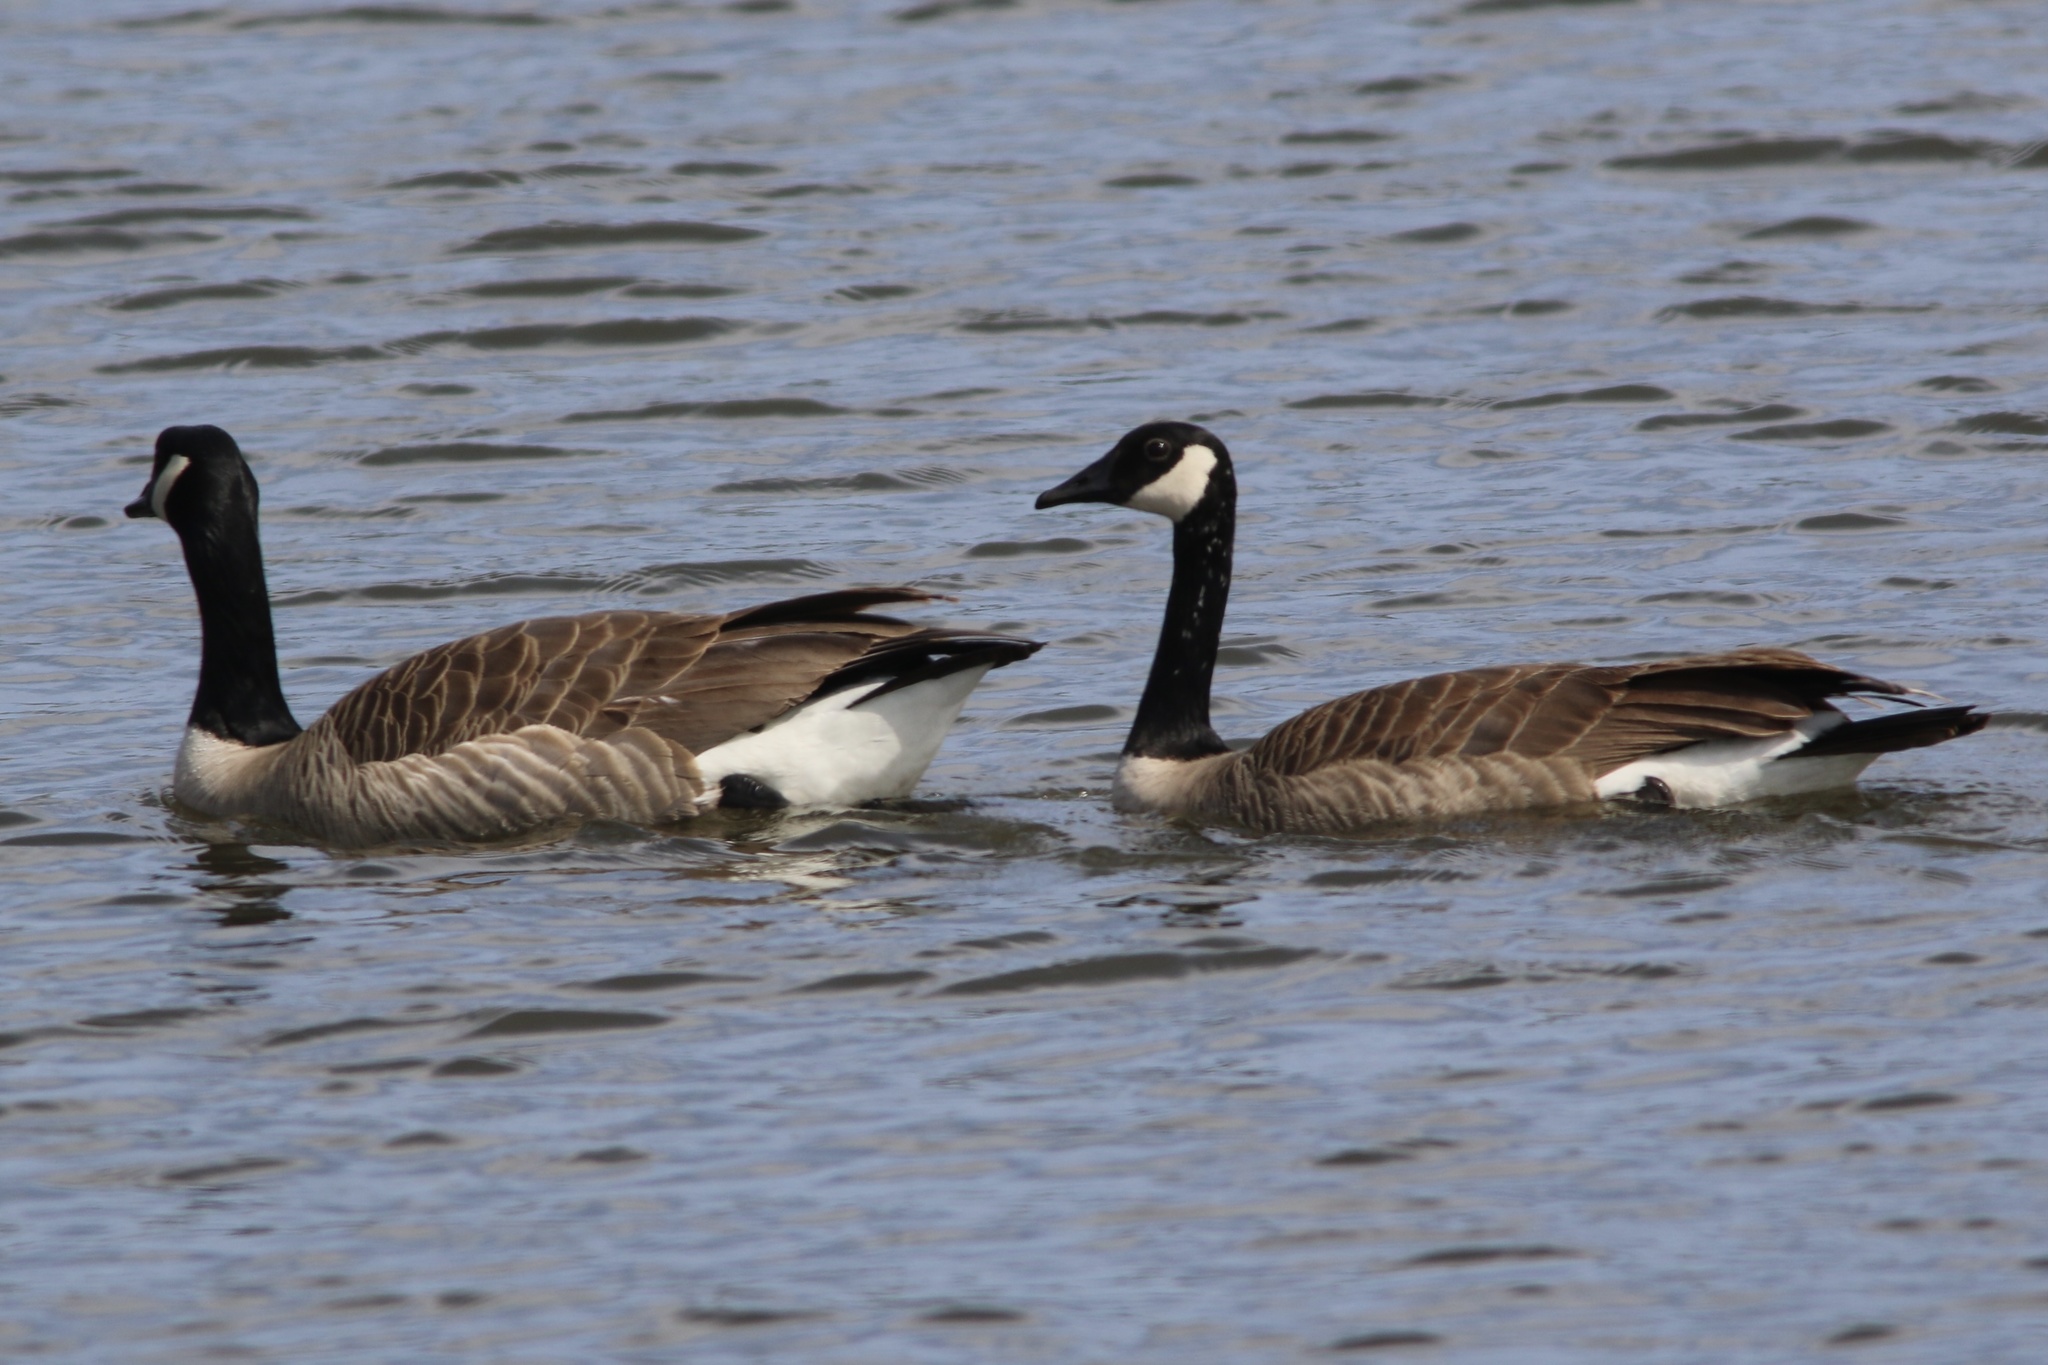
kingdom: Animalia
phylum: Chordata
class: Aves
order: Anseriformes
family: Anatidae
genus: Branta
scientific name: Branta canadensis
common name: Canada goose
